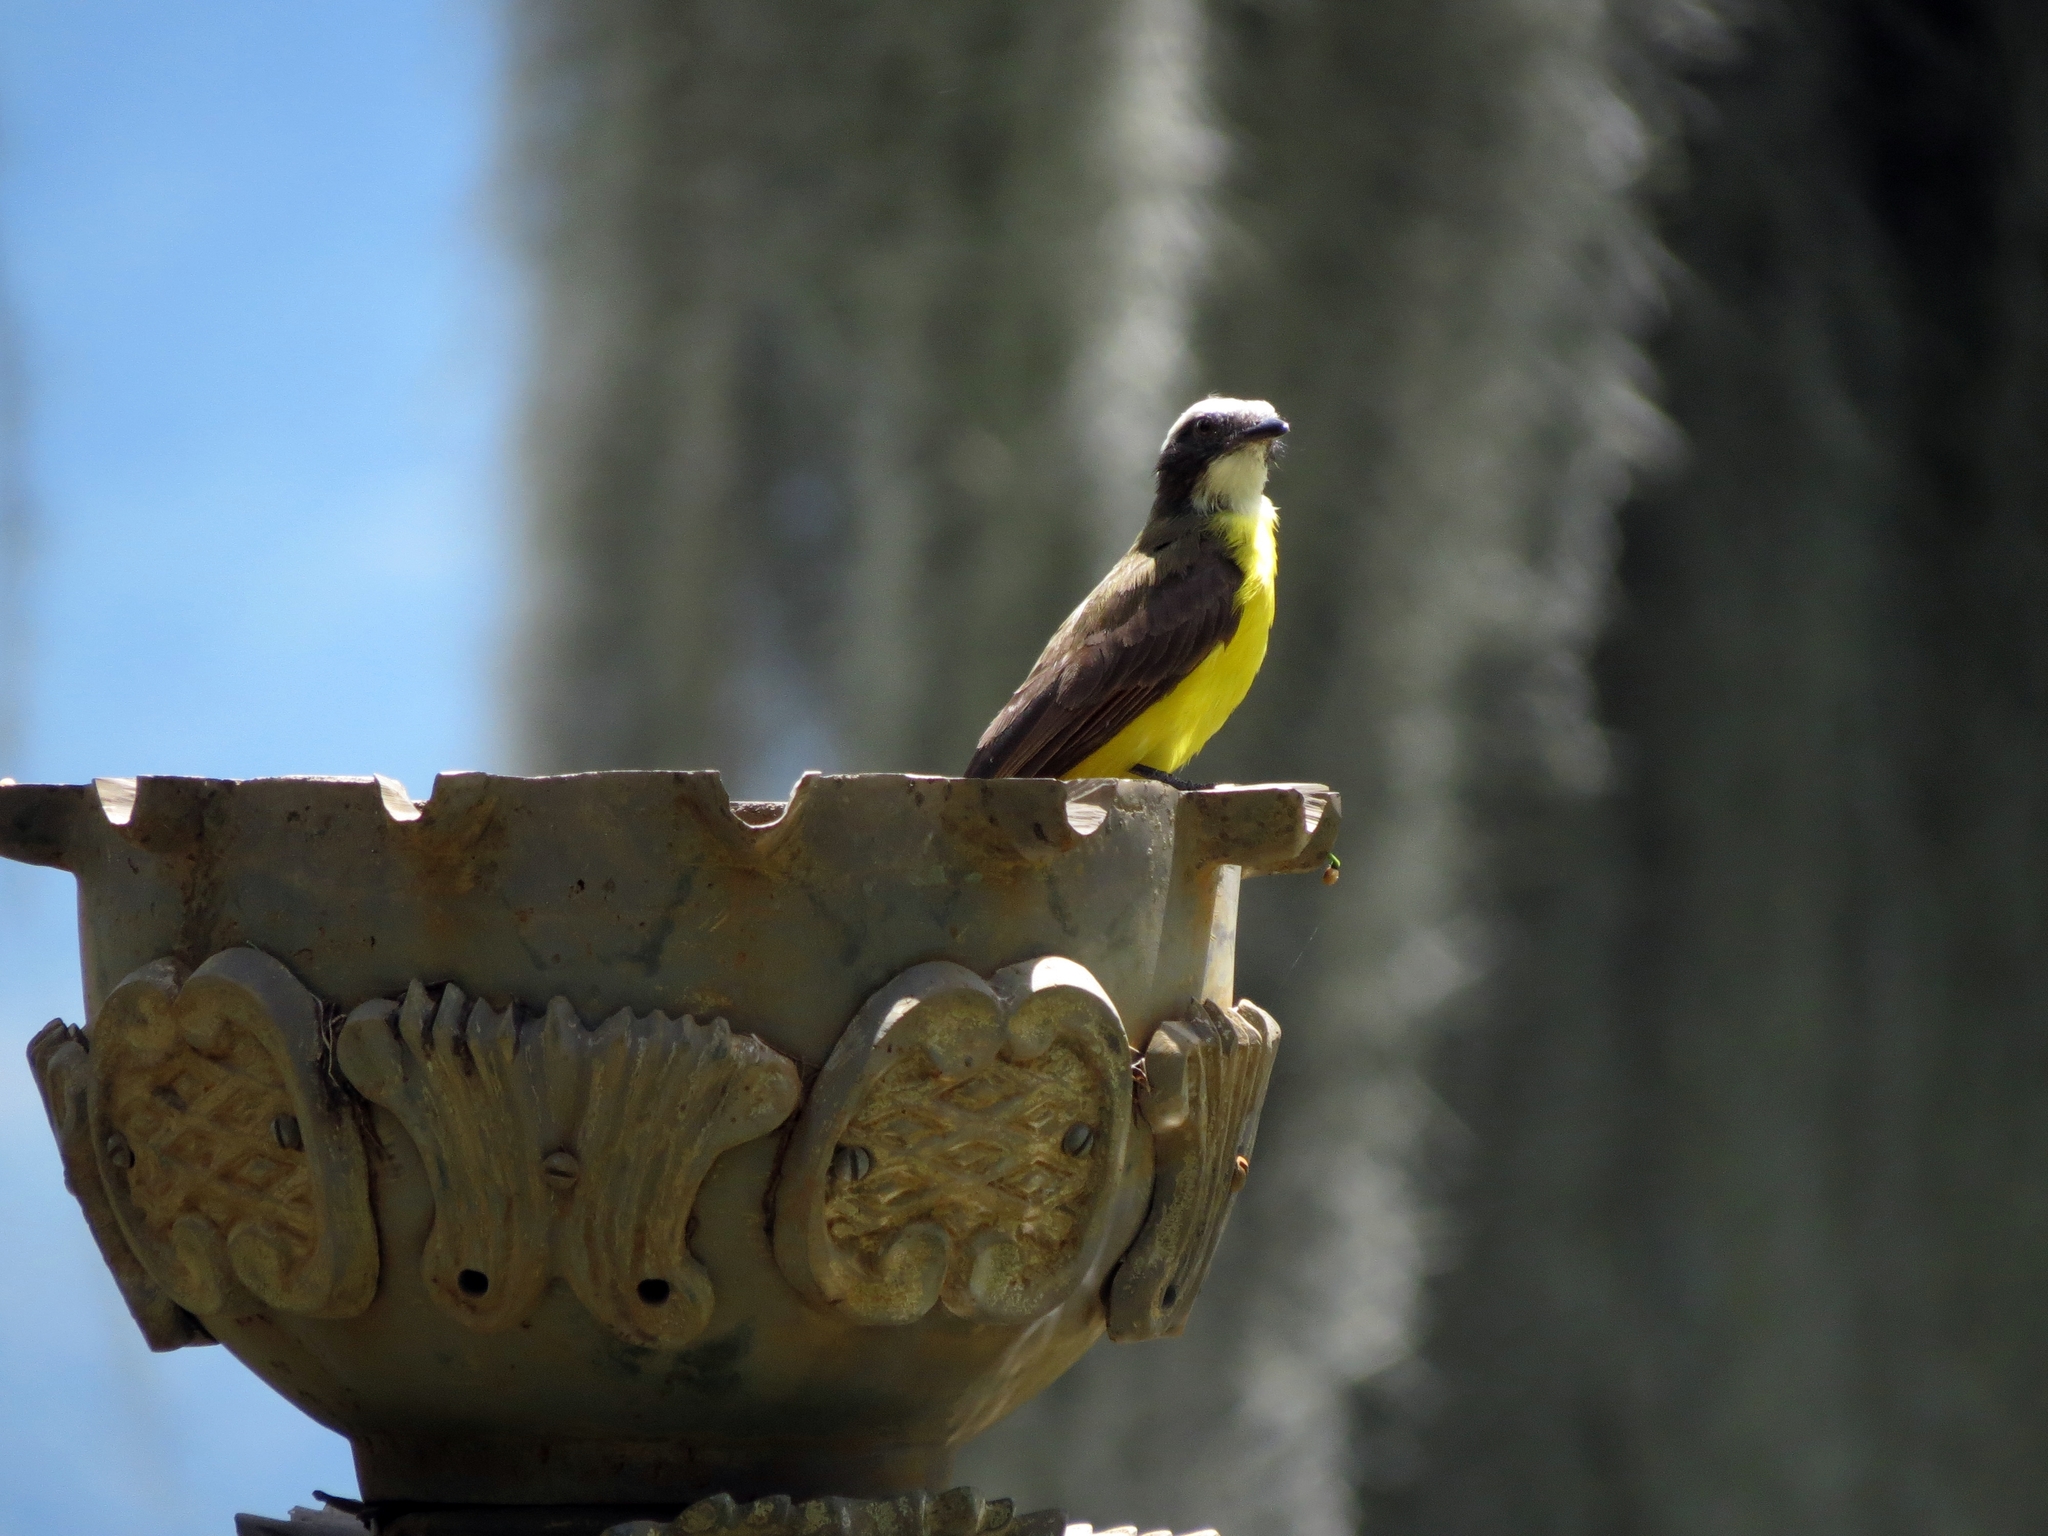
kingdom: Animalia
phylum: Chordata
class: Aves
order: Passeriformes
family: Tyrannidae
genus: Myiozetetes
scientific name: Myiozetetes cayanensis
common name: Rusty-margined flycatcher
